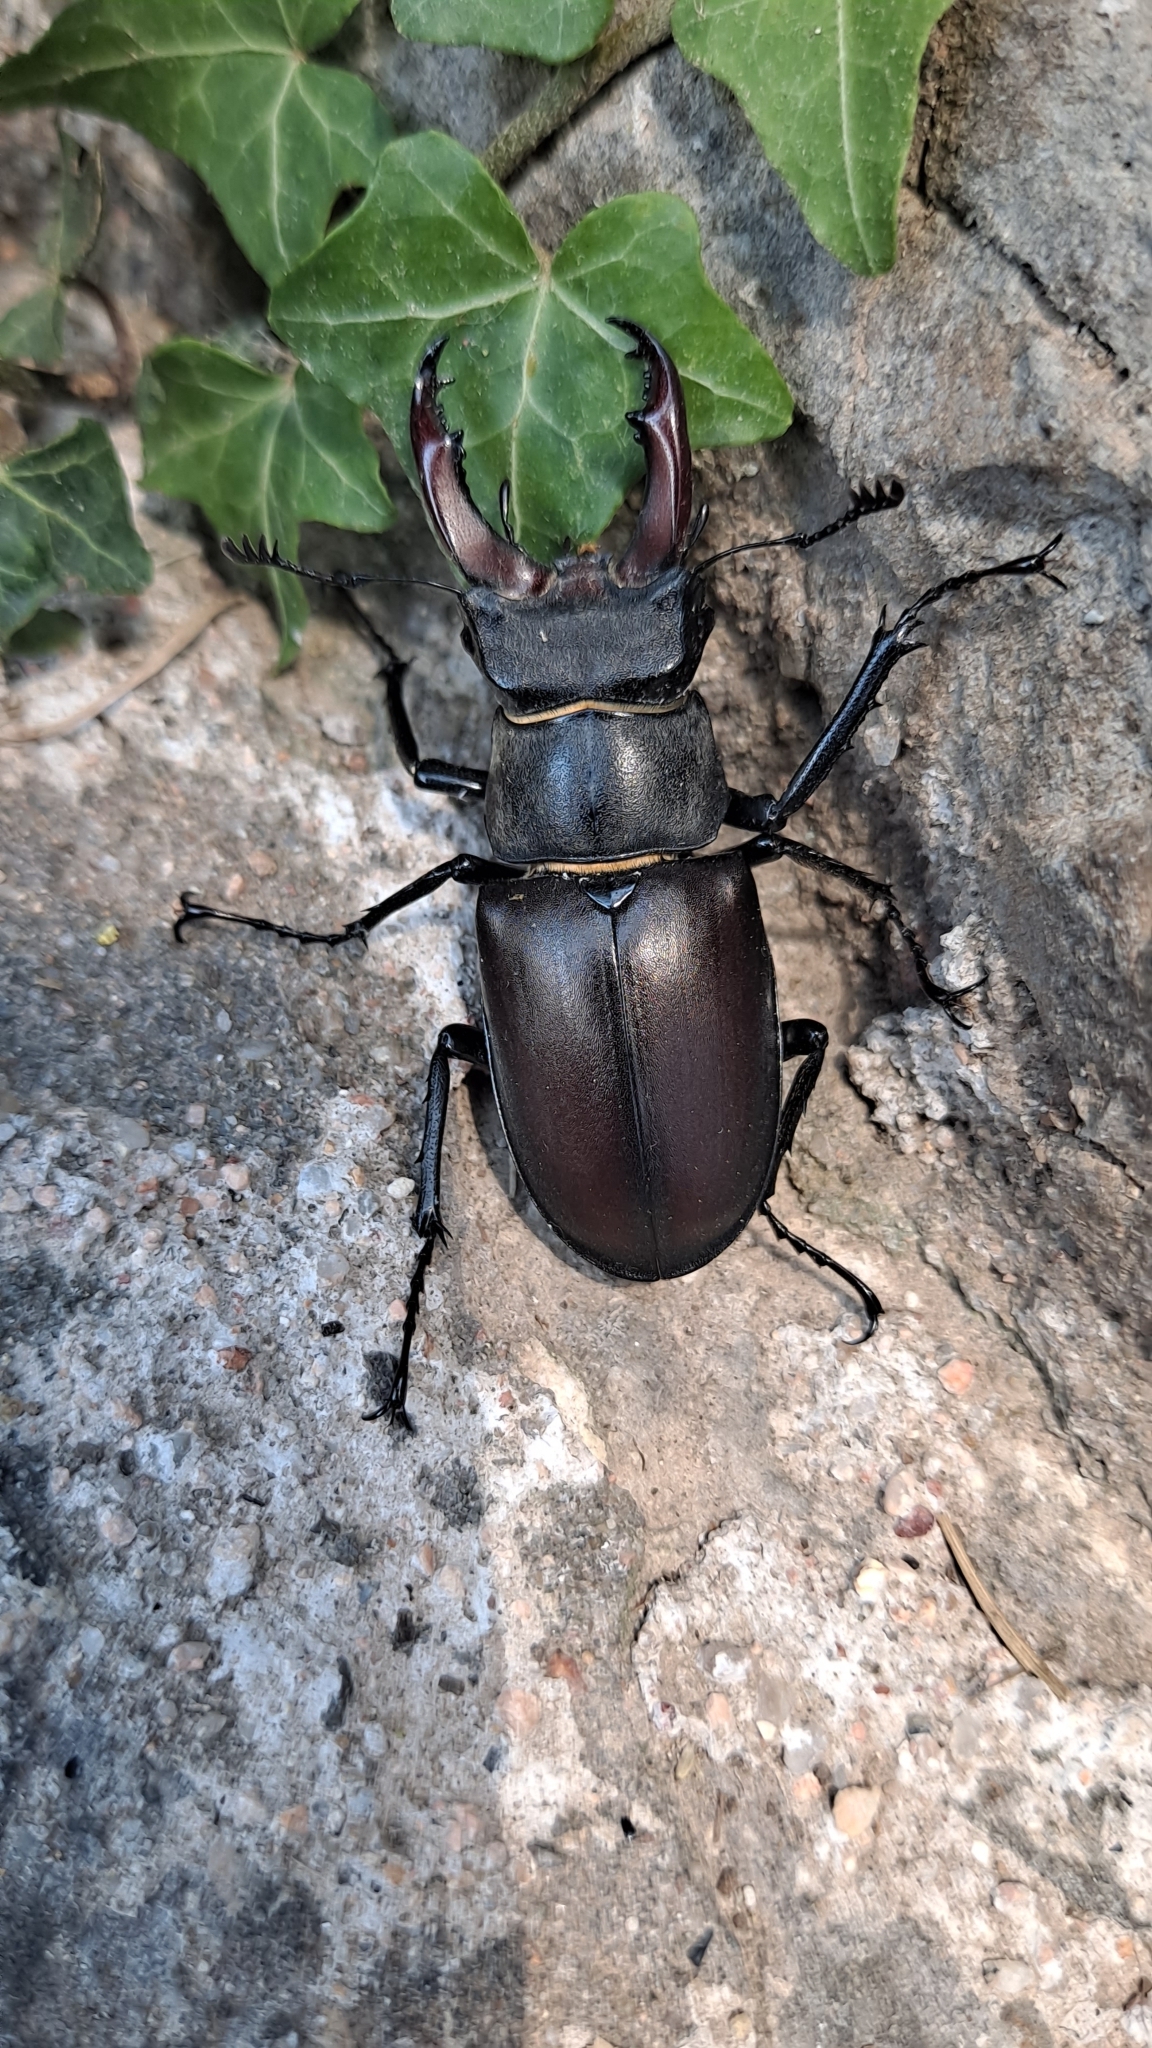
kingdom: Animalia
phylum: Arthropoda
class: Insecta
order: Coleoptera
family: Lucanidae
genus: Lucanus
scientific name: Lucanus cervus
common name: Stag beetle
